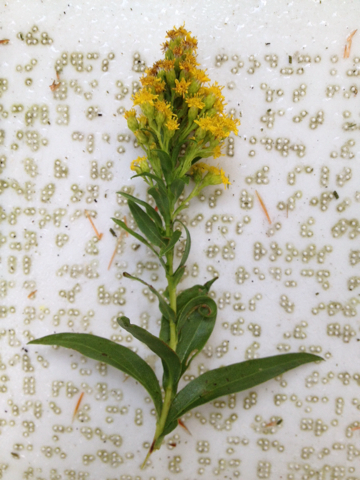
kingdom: Plantae
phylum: Tracheophyta
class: Magnoliopsida
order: Asterales
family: Asteraceae
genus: Solidago
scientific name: Solidago sempervirens
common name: Salt-marsh goldenrod
